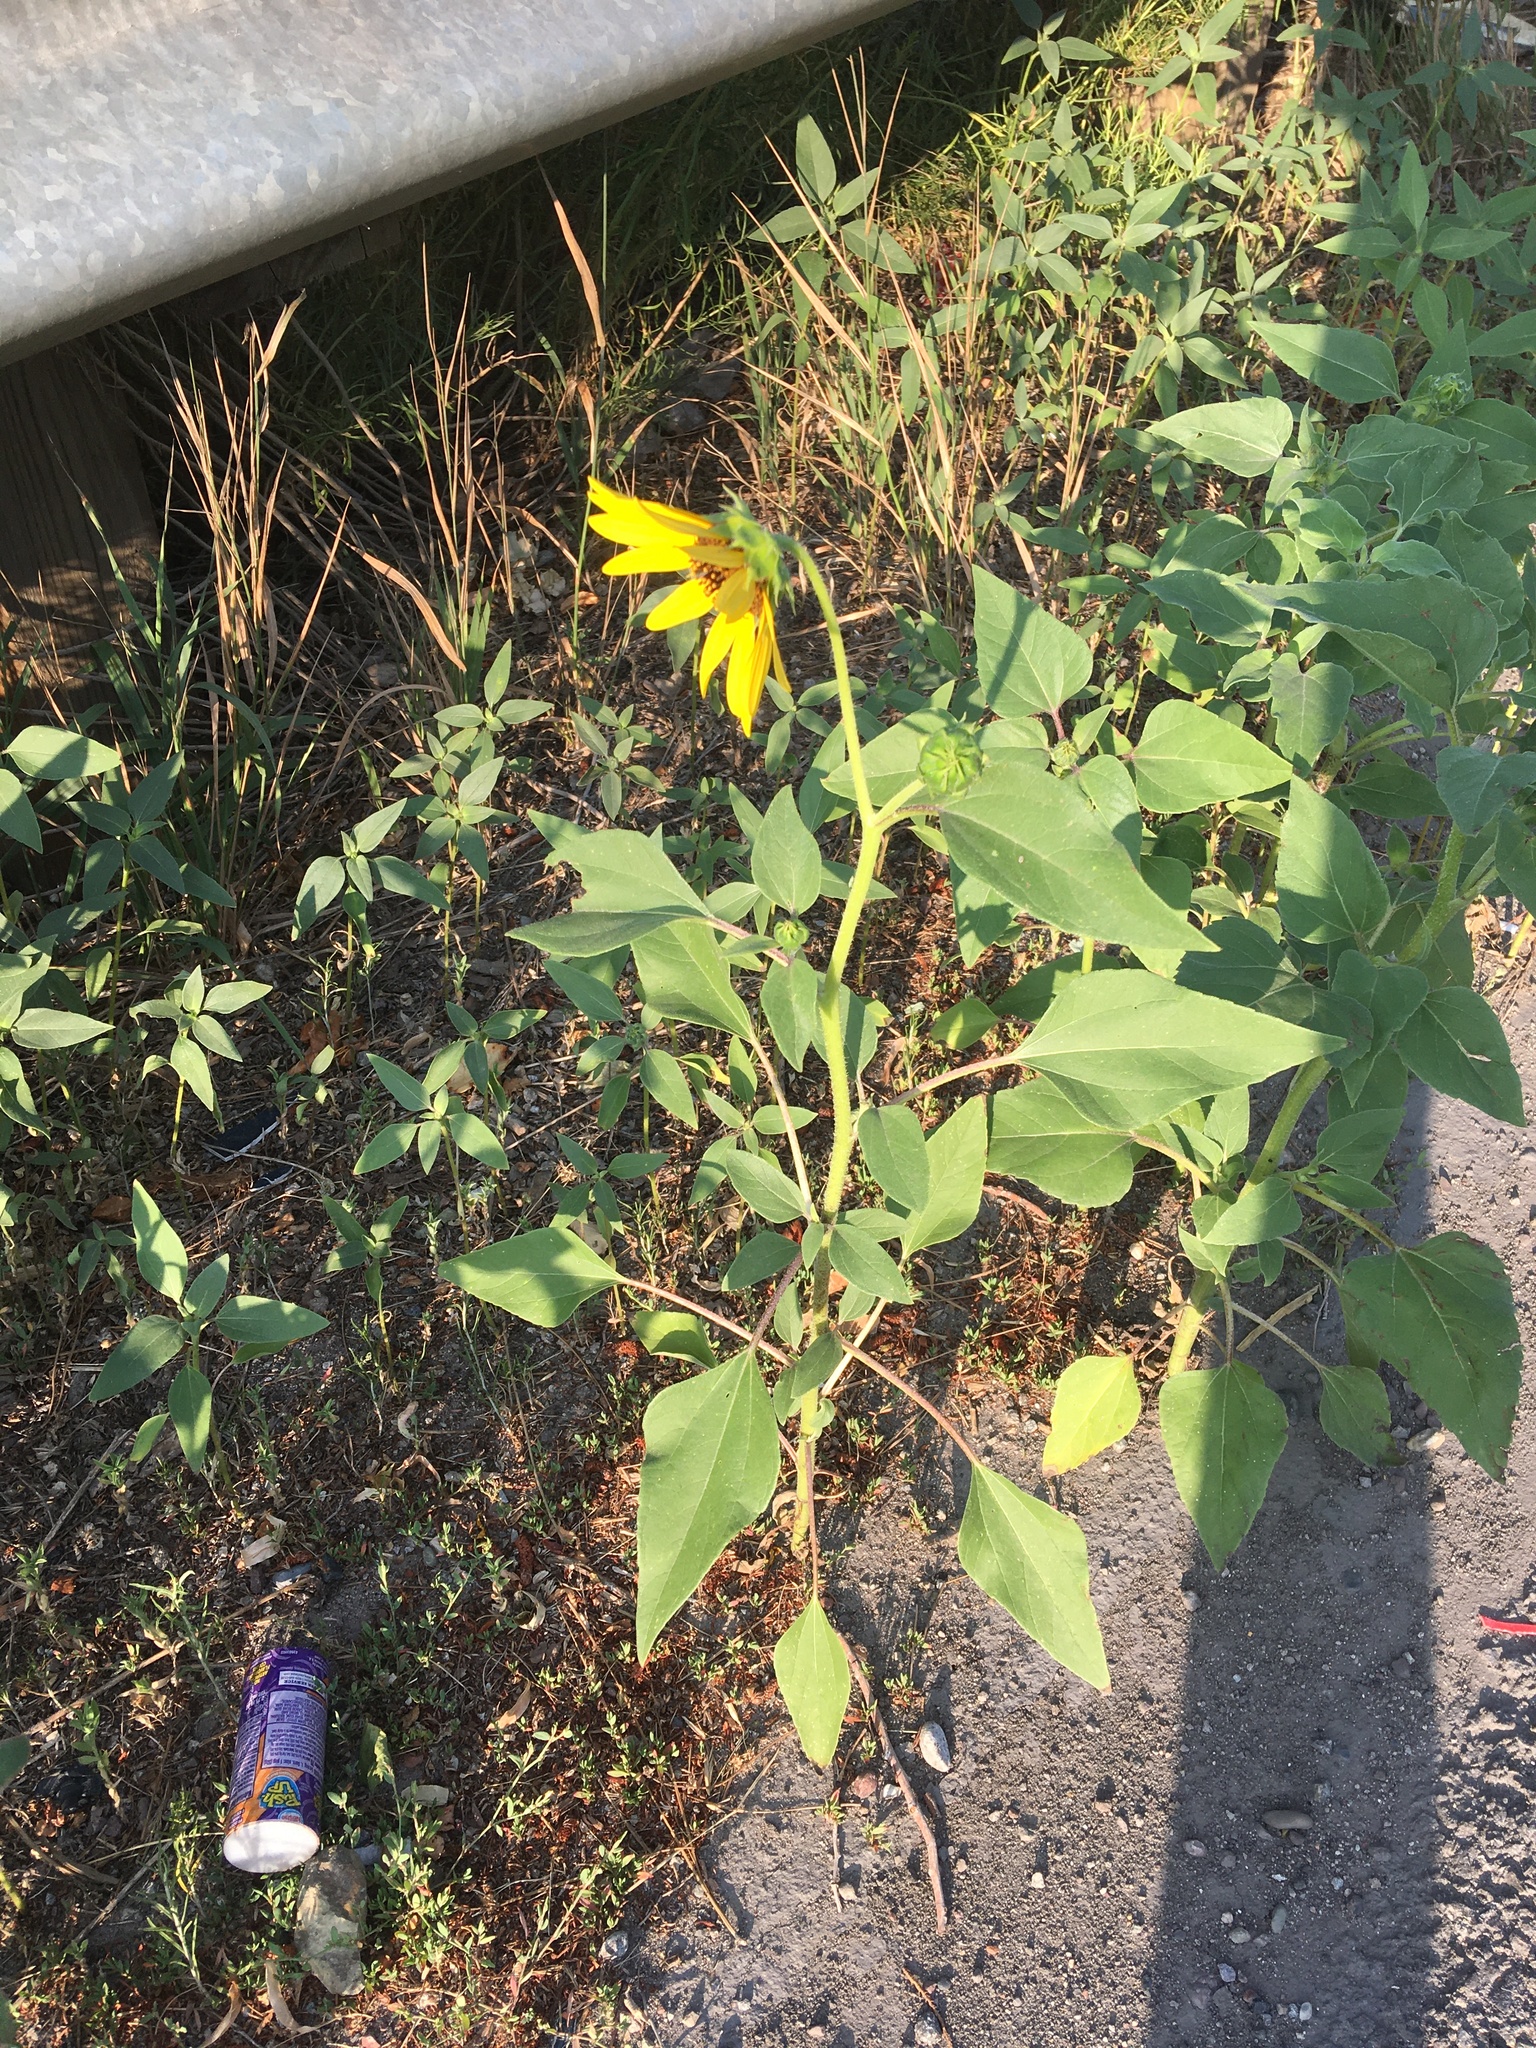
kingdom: Plantae
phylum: Tracheophyta
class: Magnoliopsida
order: Asterales
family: Asteraceae
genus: Helianthus
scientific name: Helianthus annuus
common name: Sunflower
